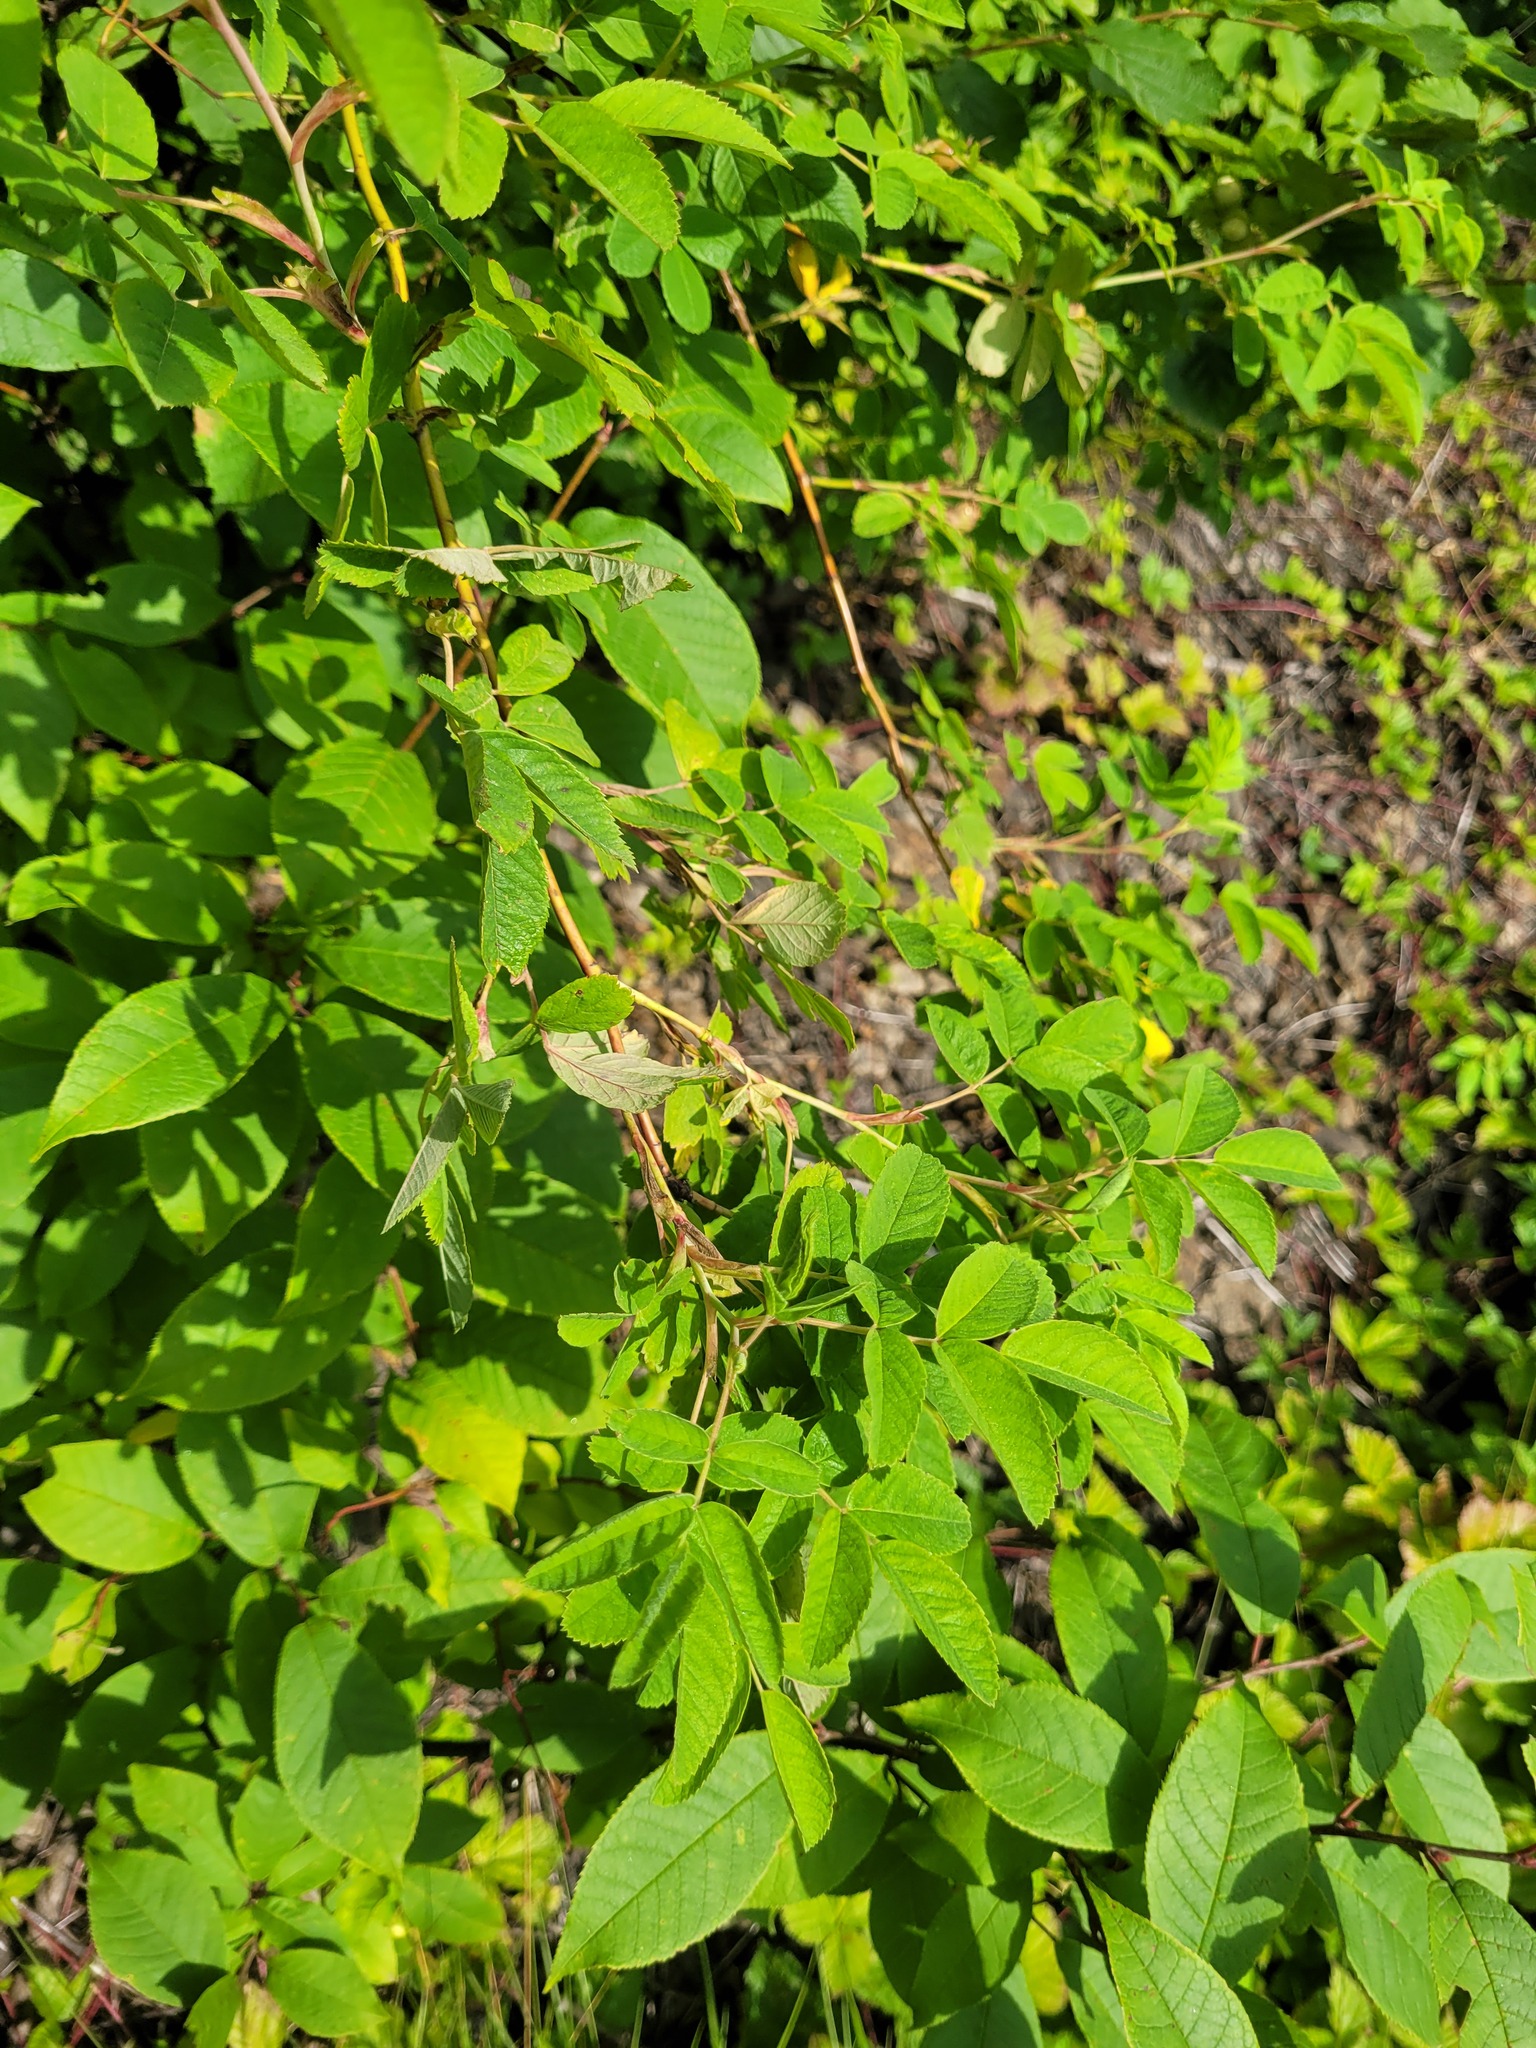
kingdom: Plantae
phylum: Tracheophyta
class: Magnoliopsida
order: Rosales
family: Rosaceae
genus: Rosa
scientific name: Rosa majalis
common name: Cinnamon rose
